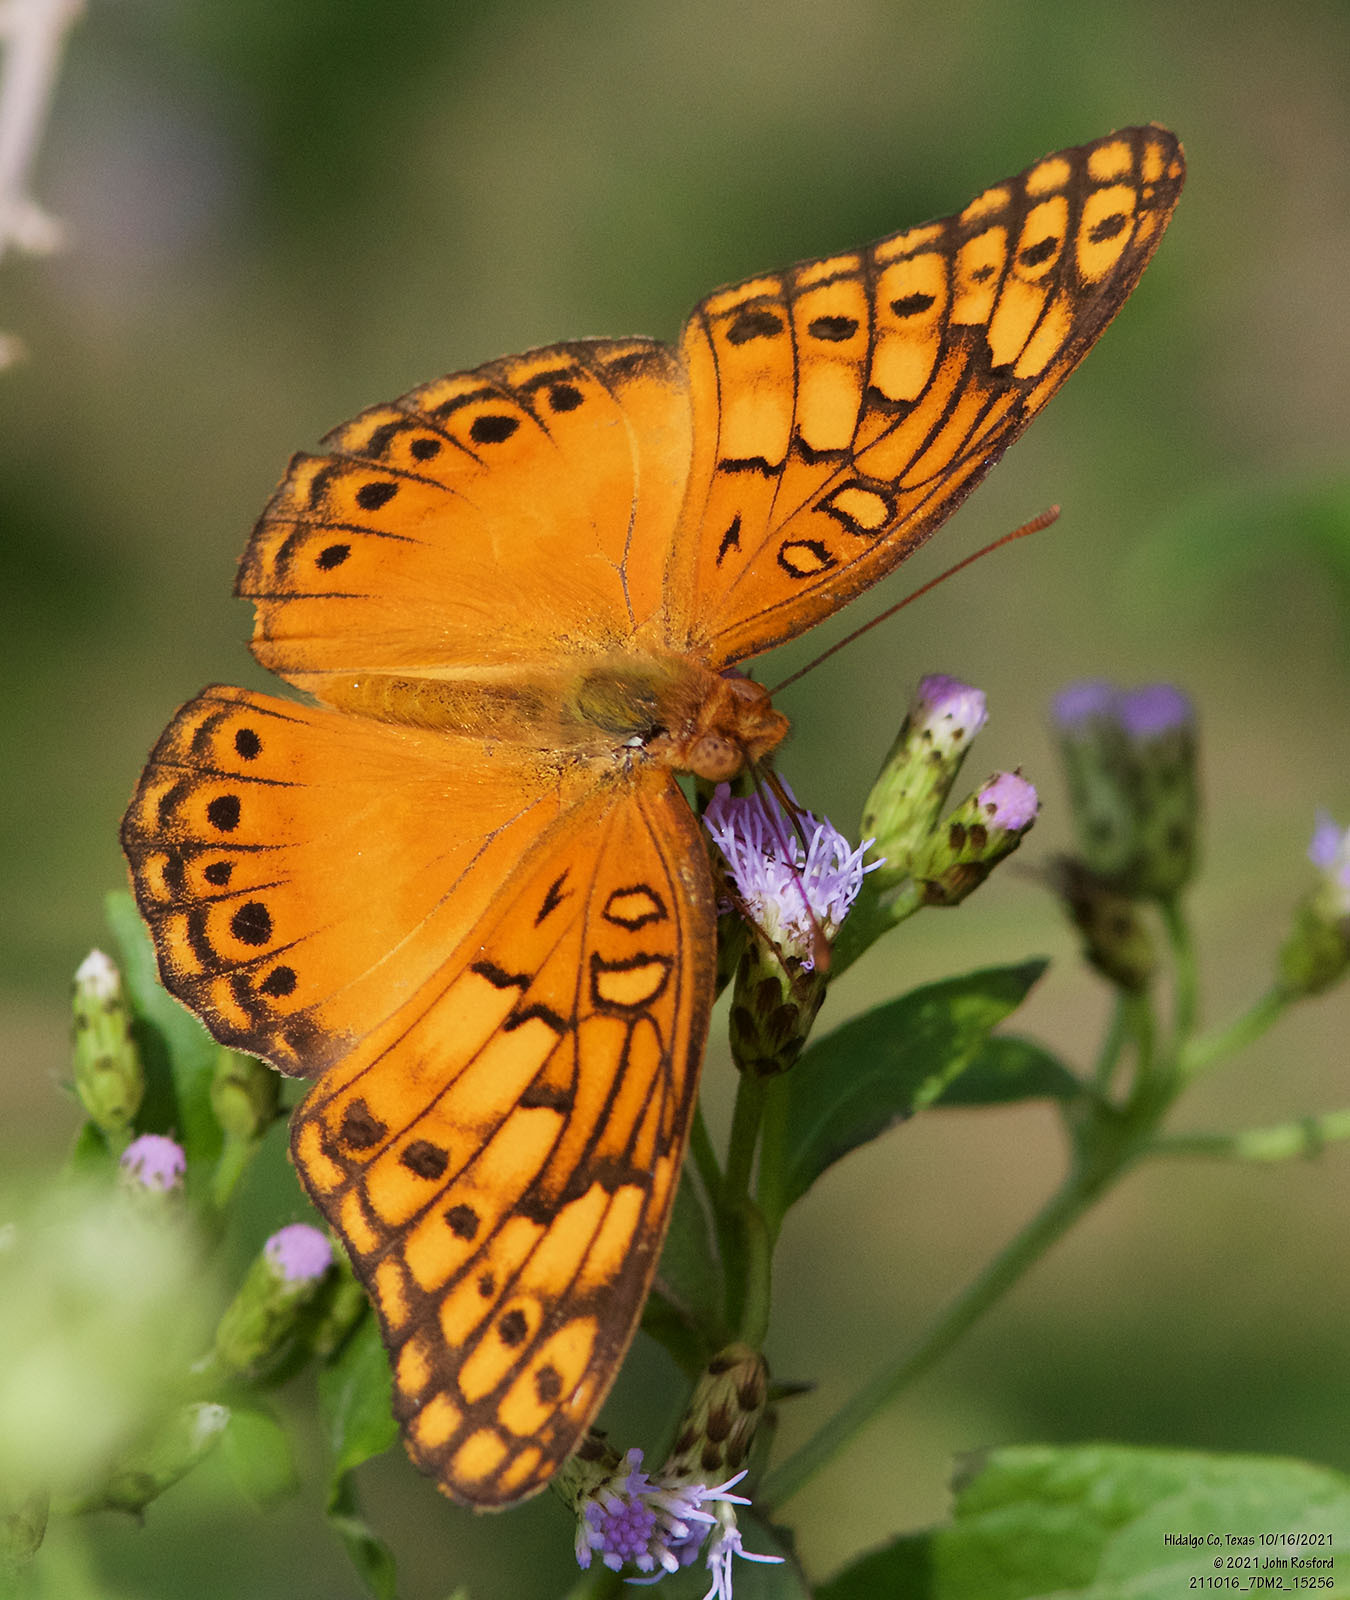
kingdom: Animalia
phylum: Arthropoda
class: Insecta
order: Lepidoptera
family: Nymphalidae
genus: Euptoieta
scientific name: Euptoieta hegesia
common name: Mexican fritillary
